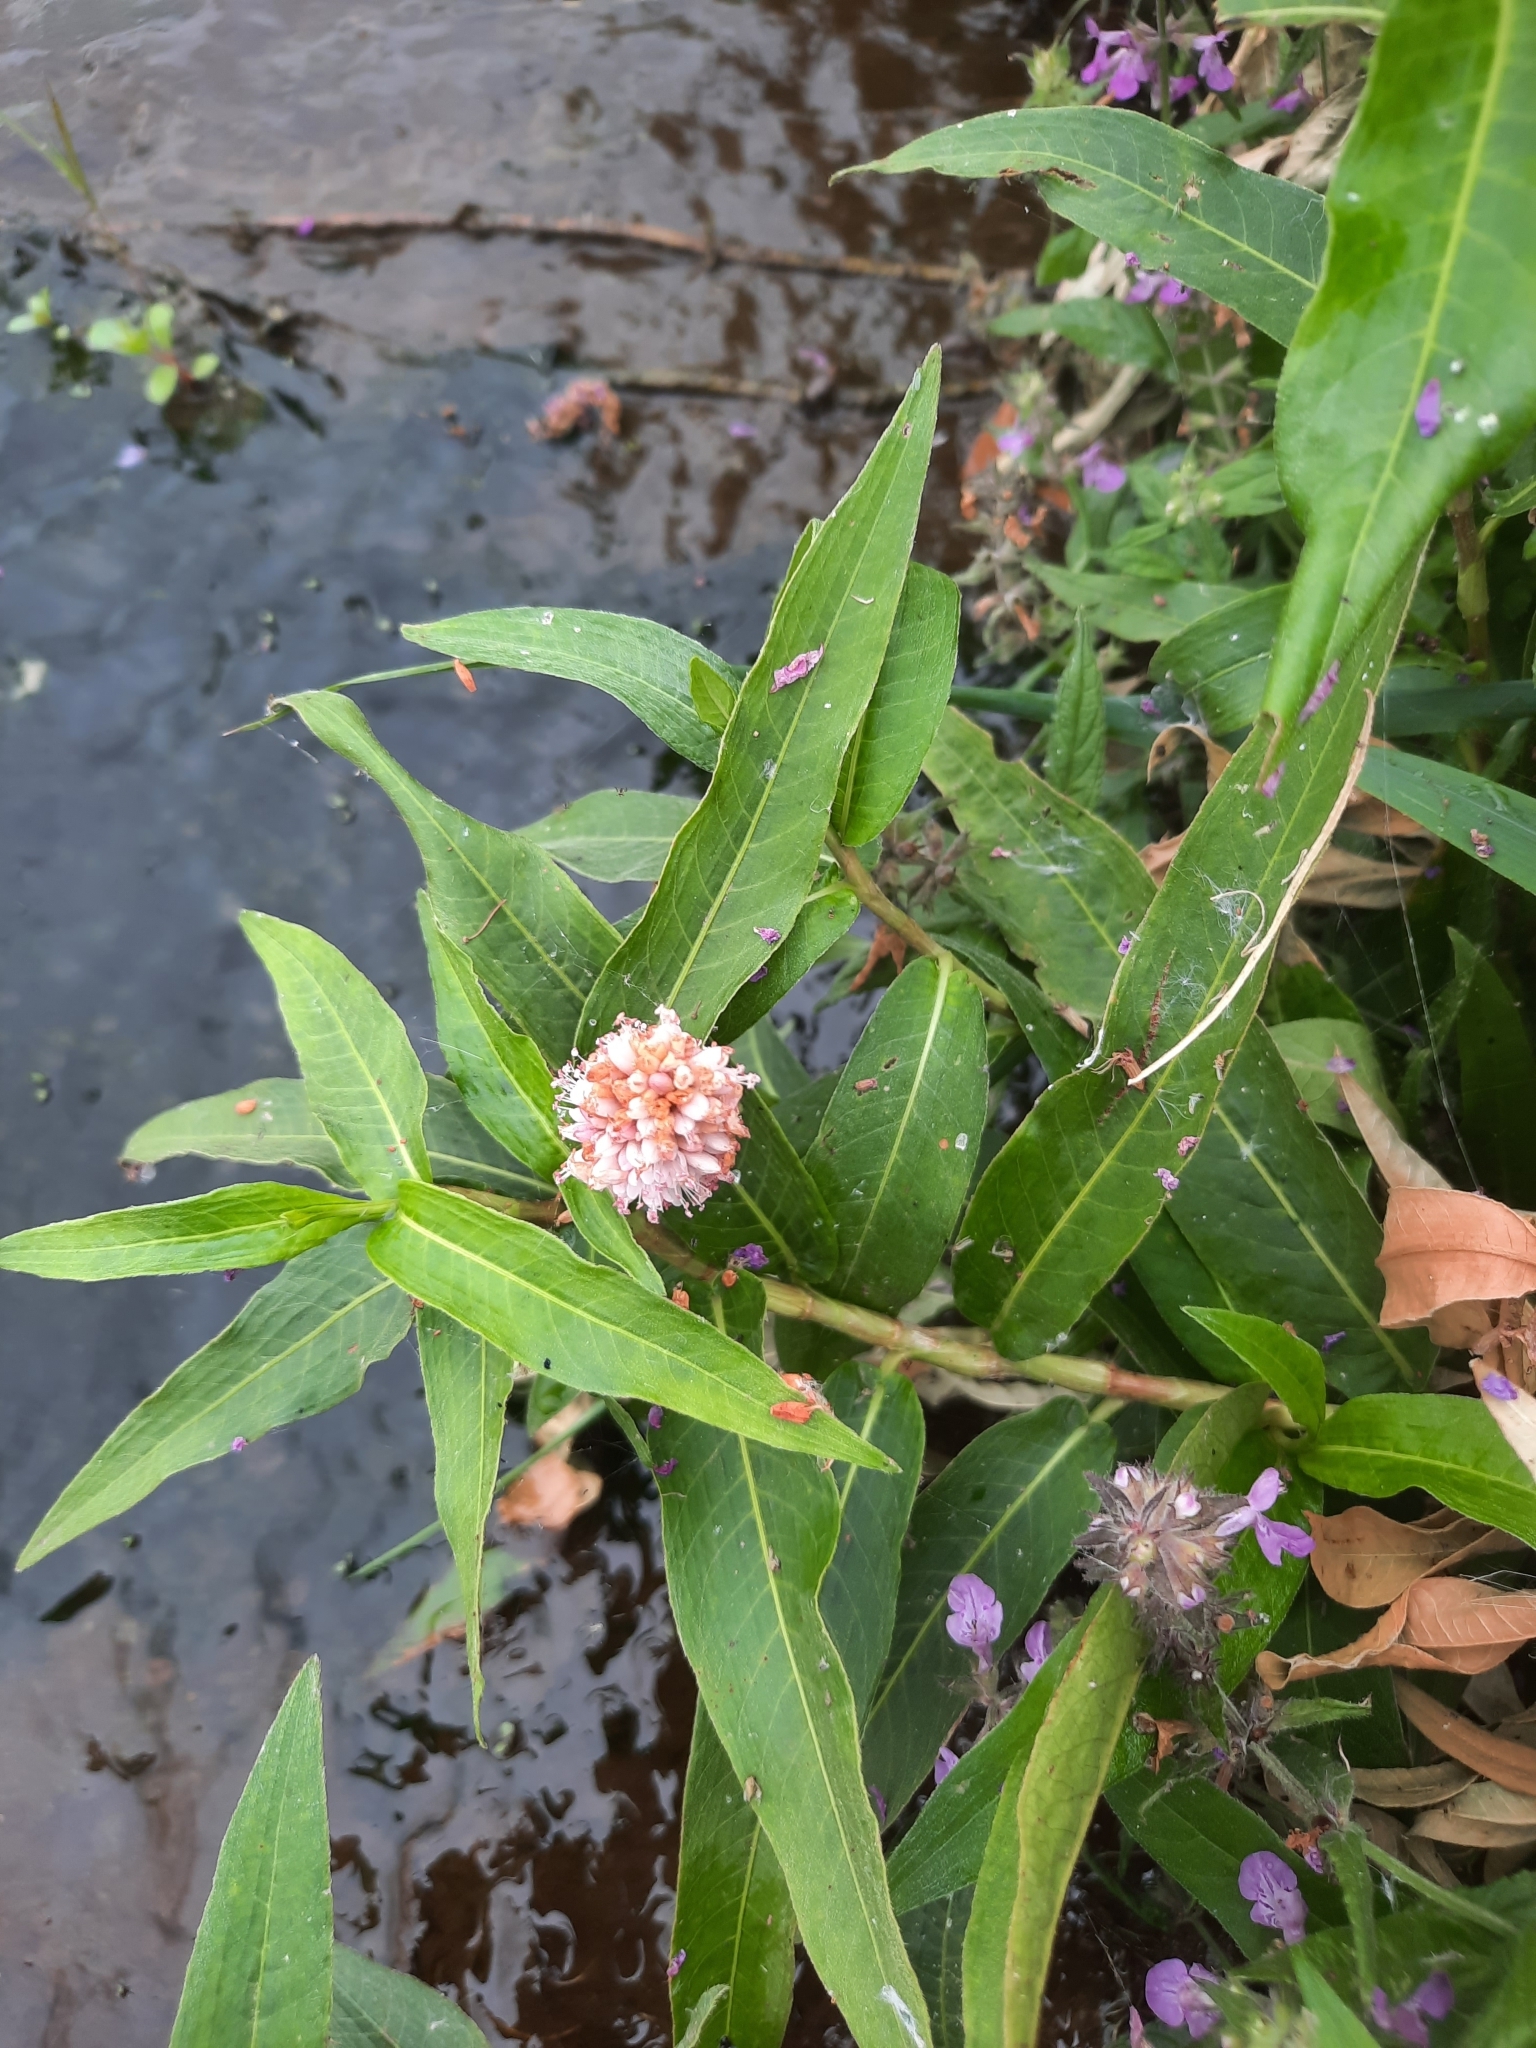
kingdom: Plantae
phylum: Tracheophyta
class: Magnoliopsida
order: Caryophyllales
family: Polygonaceae
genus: Persicaria
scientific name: Persicaria amphibia
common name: Amphibious bistort
